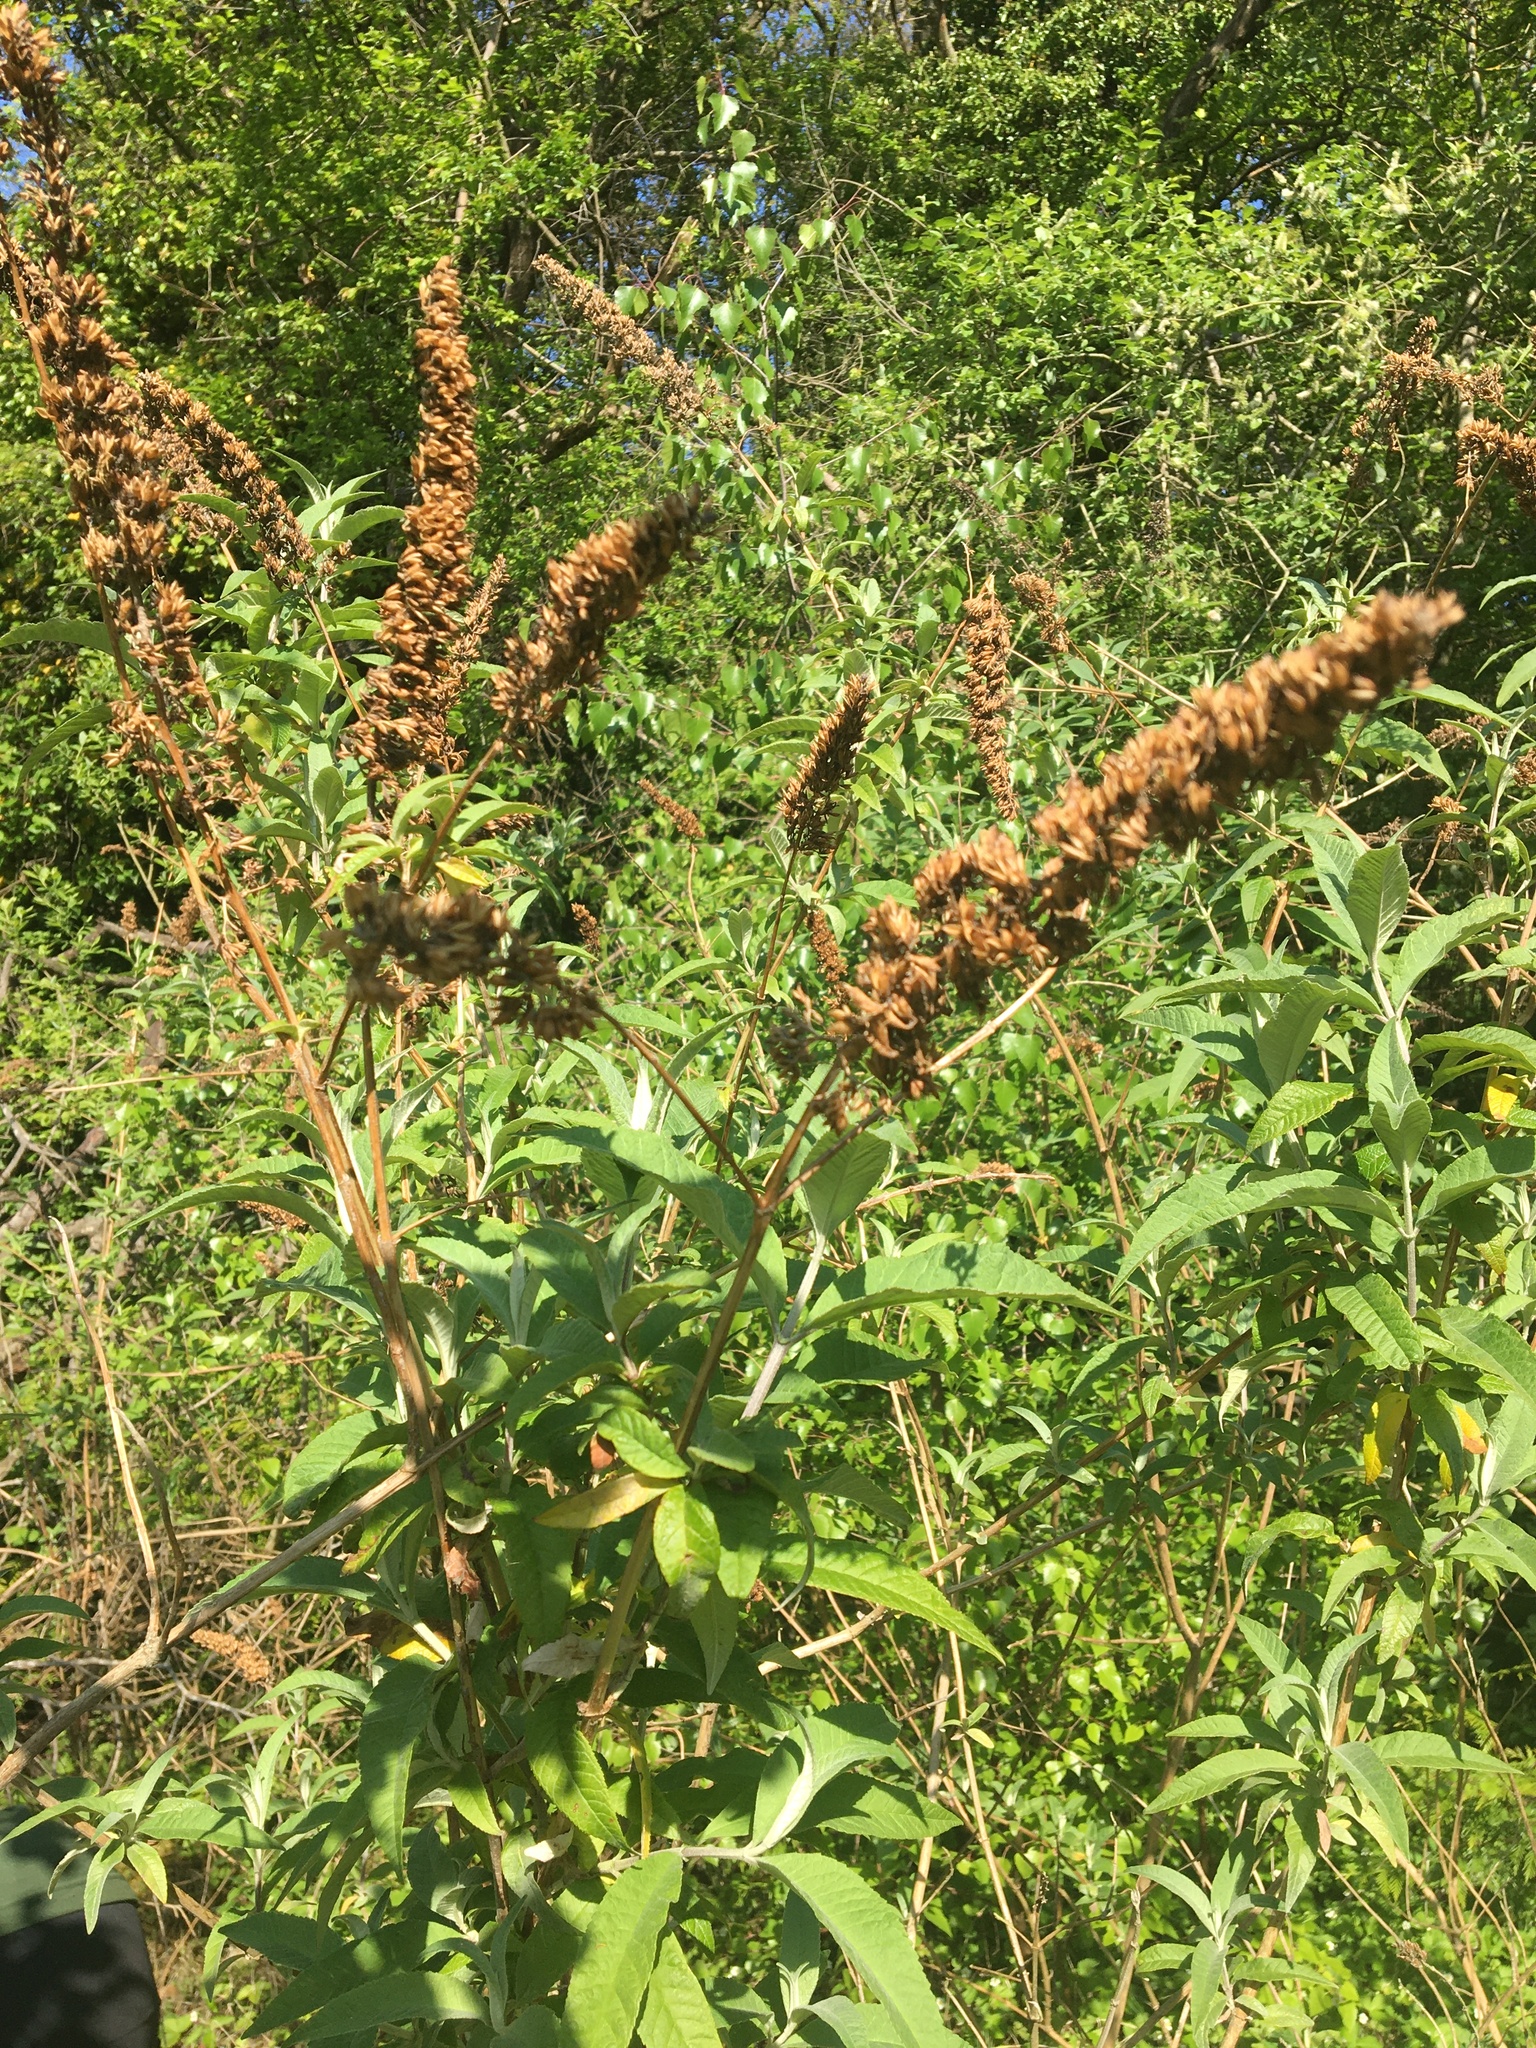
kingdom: Plantae
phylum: Tracheophyta
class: Magnoliopsida
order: Lamiales
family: Scrophulariaceae
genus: Buddleja
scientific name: Buddleja davidii
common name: Butterfly-bush
